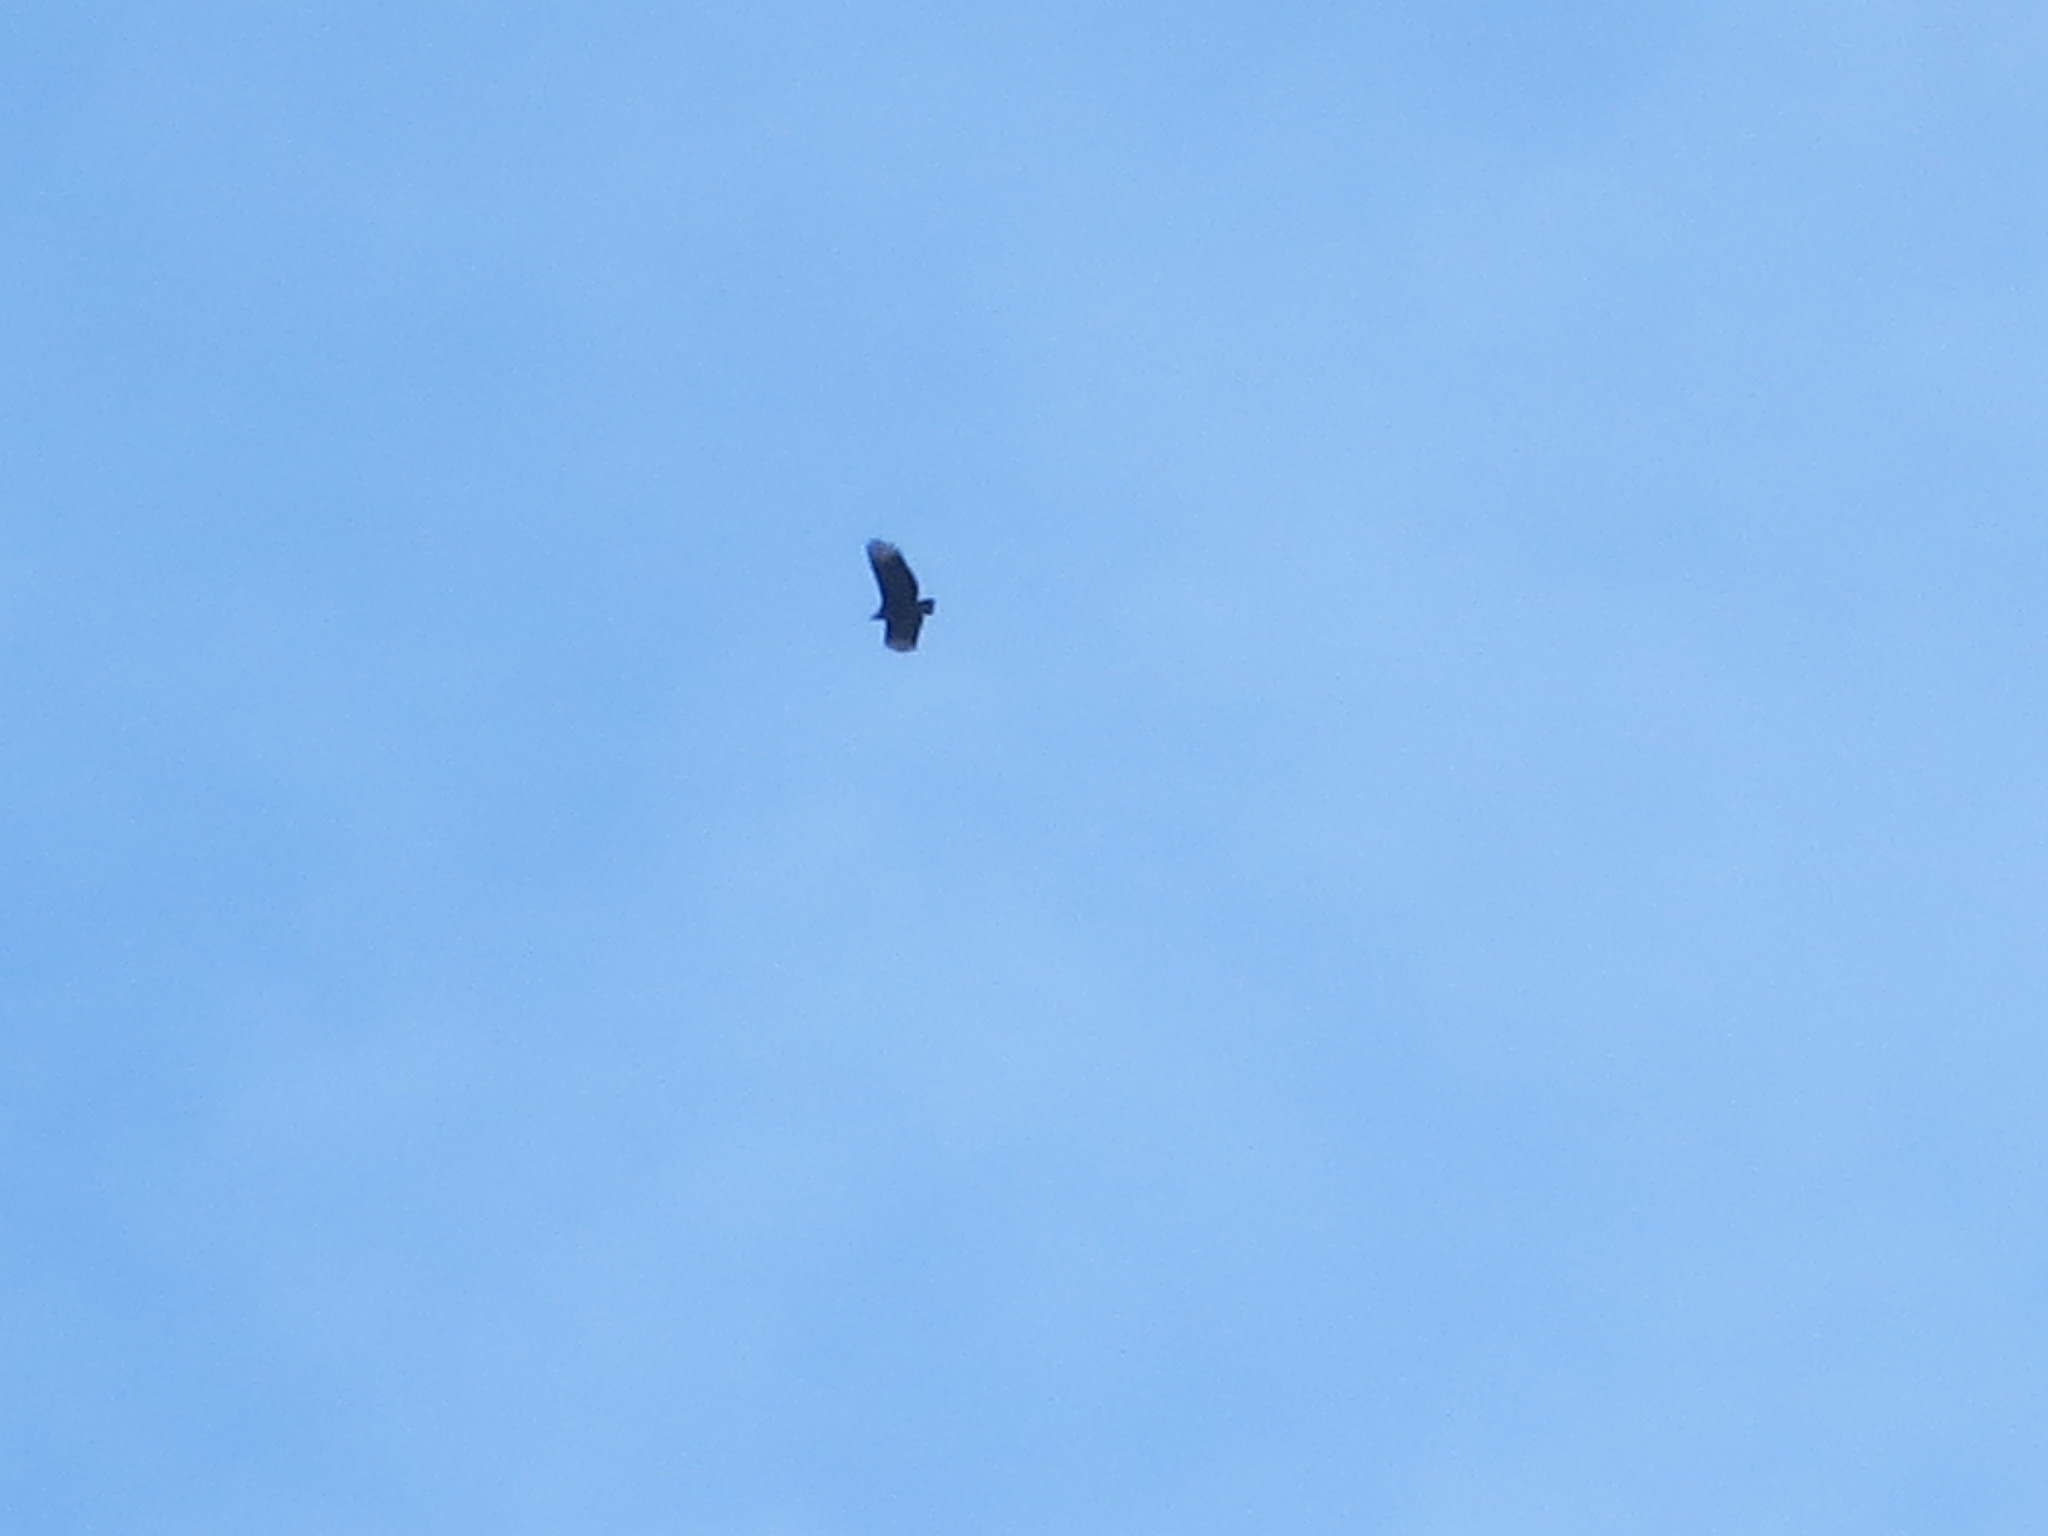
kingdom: Animalia
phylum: Chordata
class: Aves
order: Accipitriformes
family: Cathartidae
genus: Coragyps
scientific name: Coragyps atratus
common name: Black vulture
